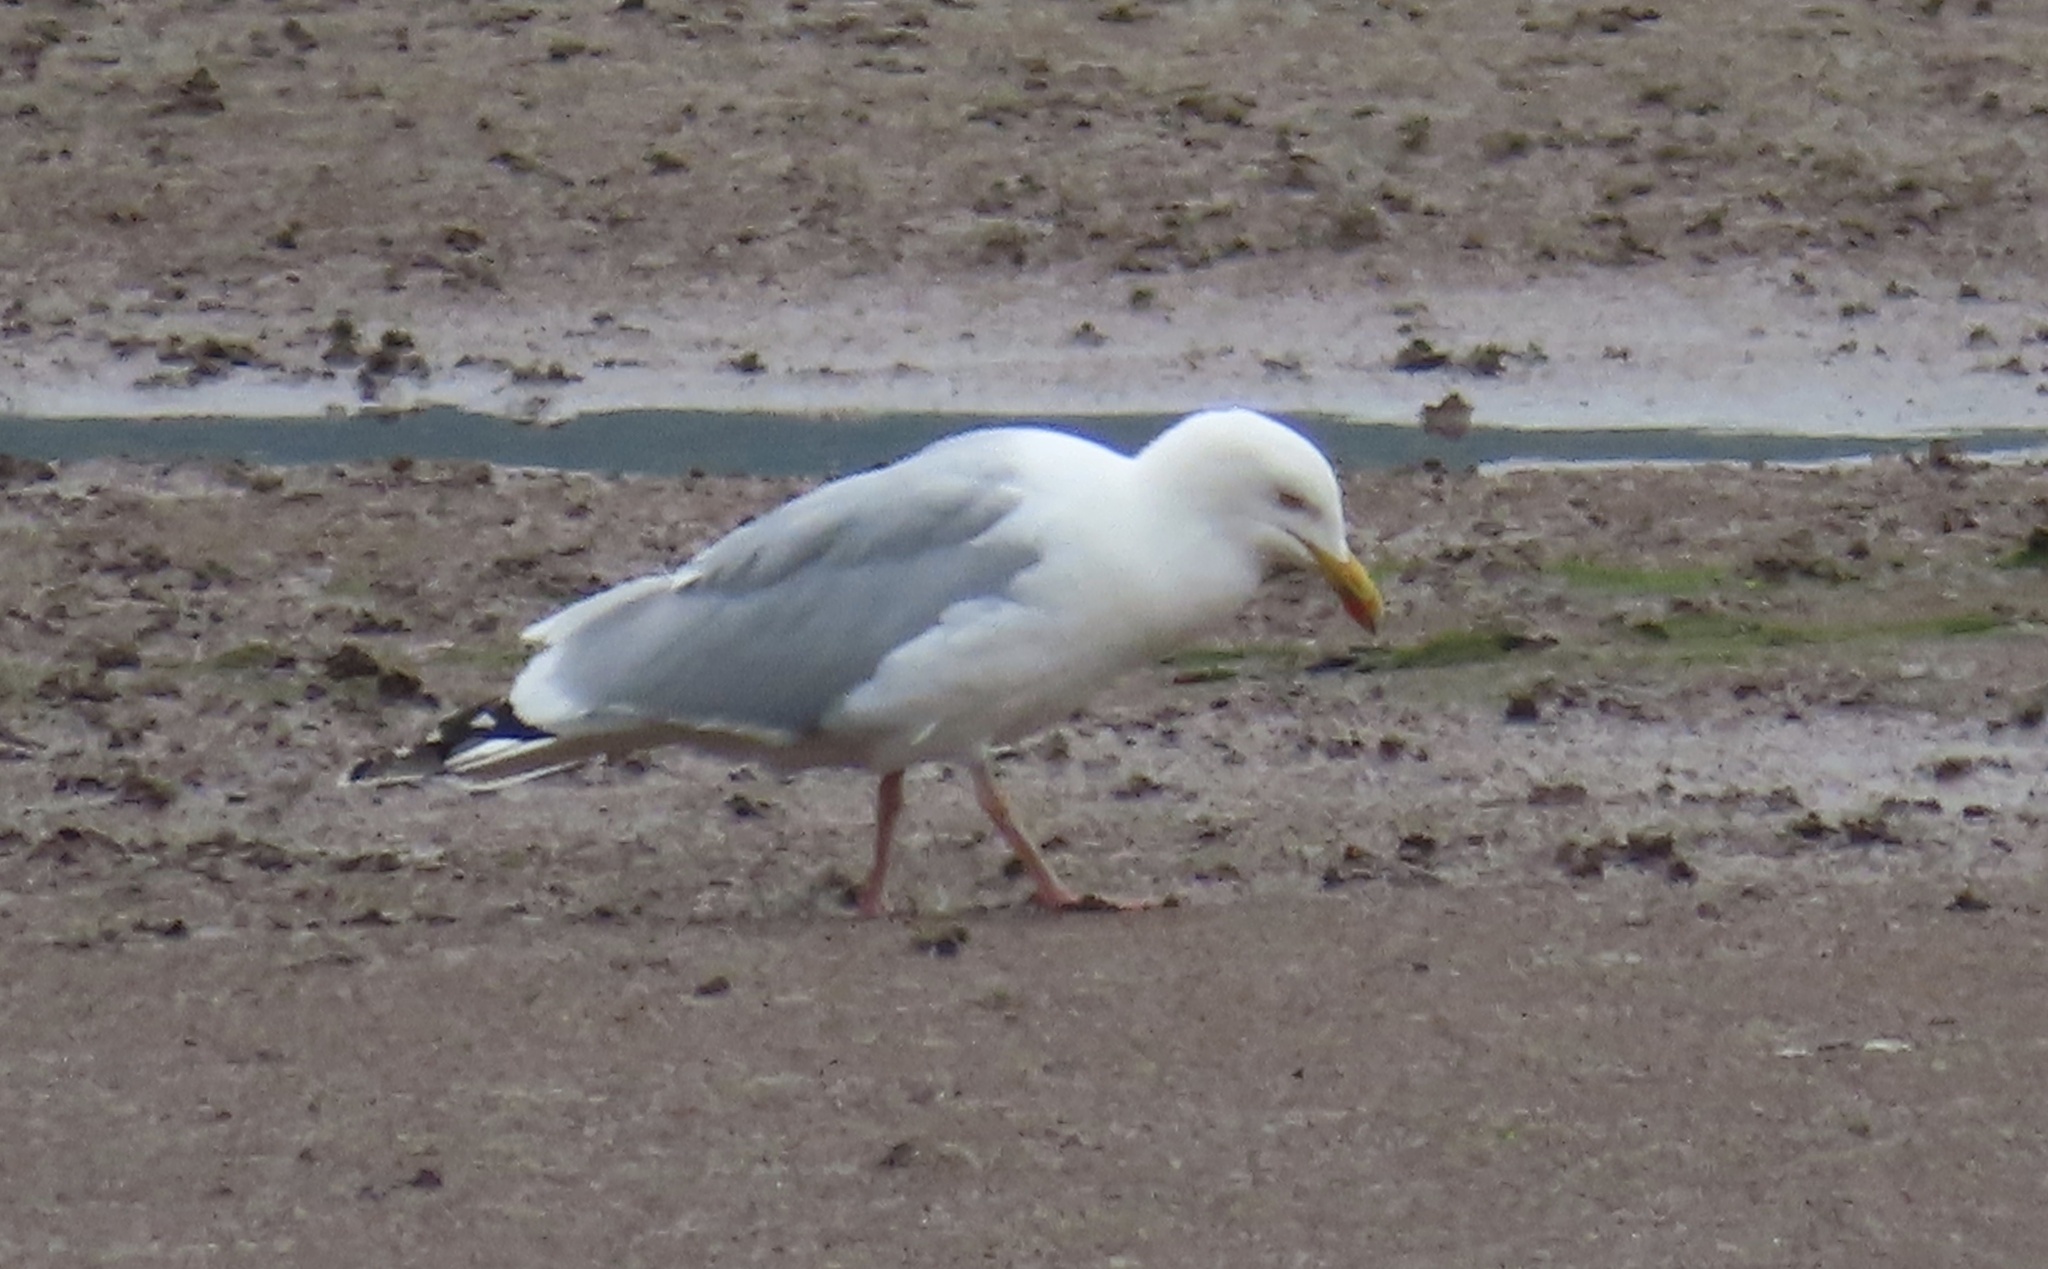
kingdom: Animalia
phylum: Chordata
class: Aves
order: Charadriiformes
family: Laridae
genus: Larus
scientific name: Larus argentatus
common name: Herring gull
